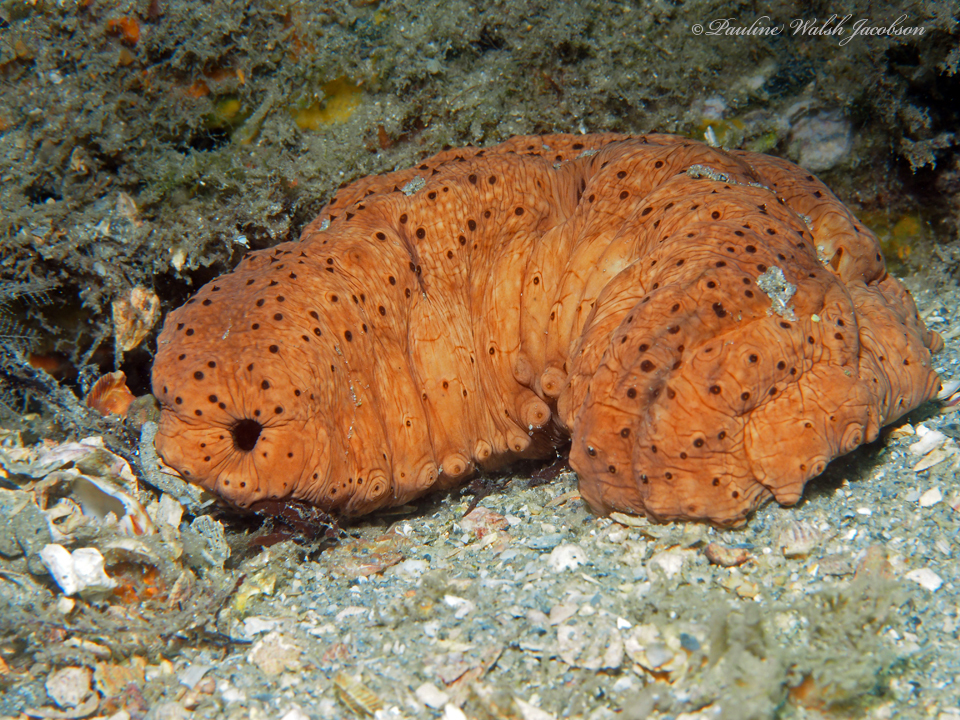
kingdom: Animalia
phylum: Echinodermata
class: Holothuroidea
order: Synallactida
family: Stichopodidae
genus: Isostichopus
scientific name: Isostichopus badionotus
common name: Chocolate chip cucumber
